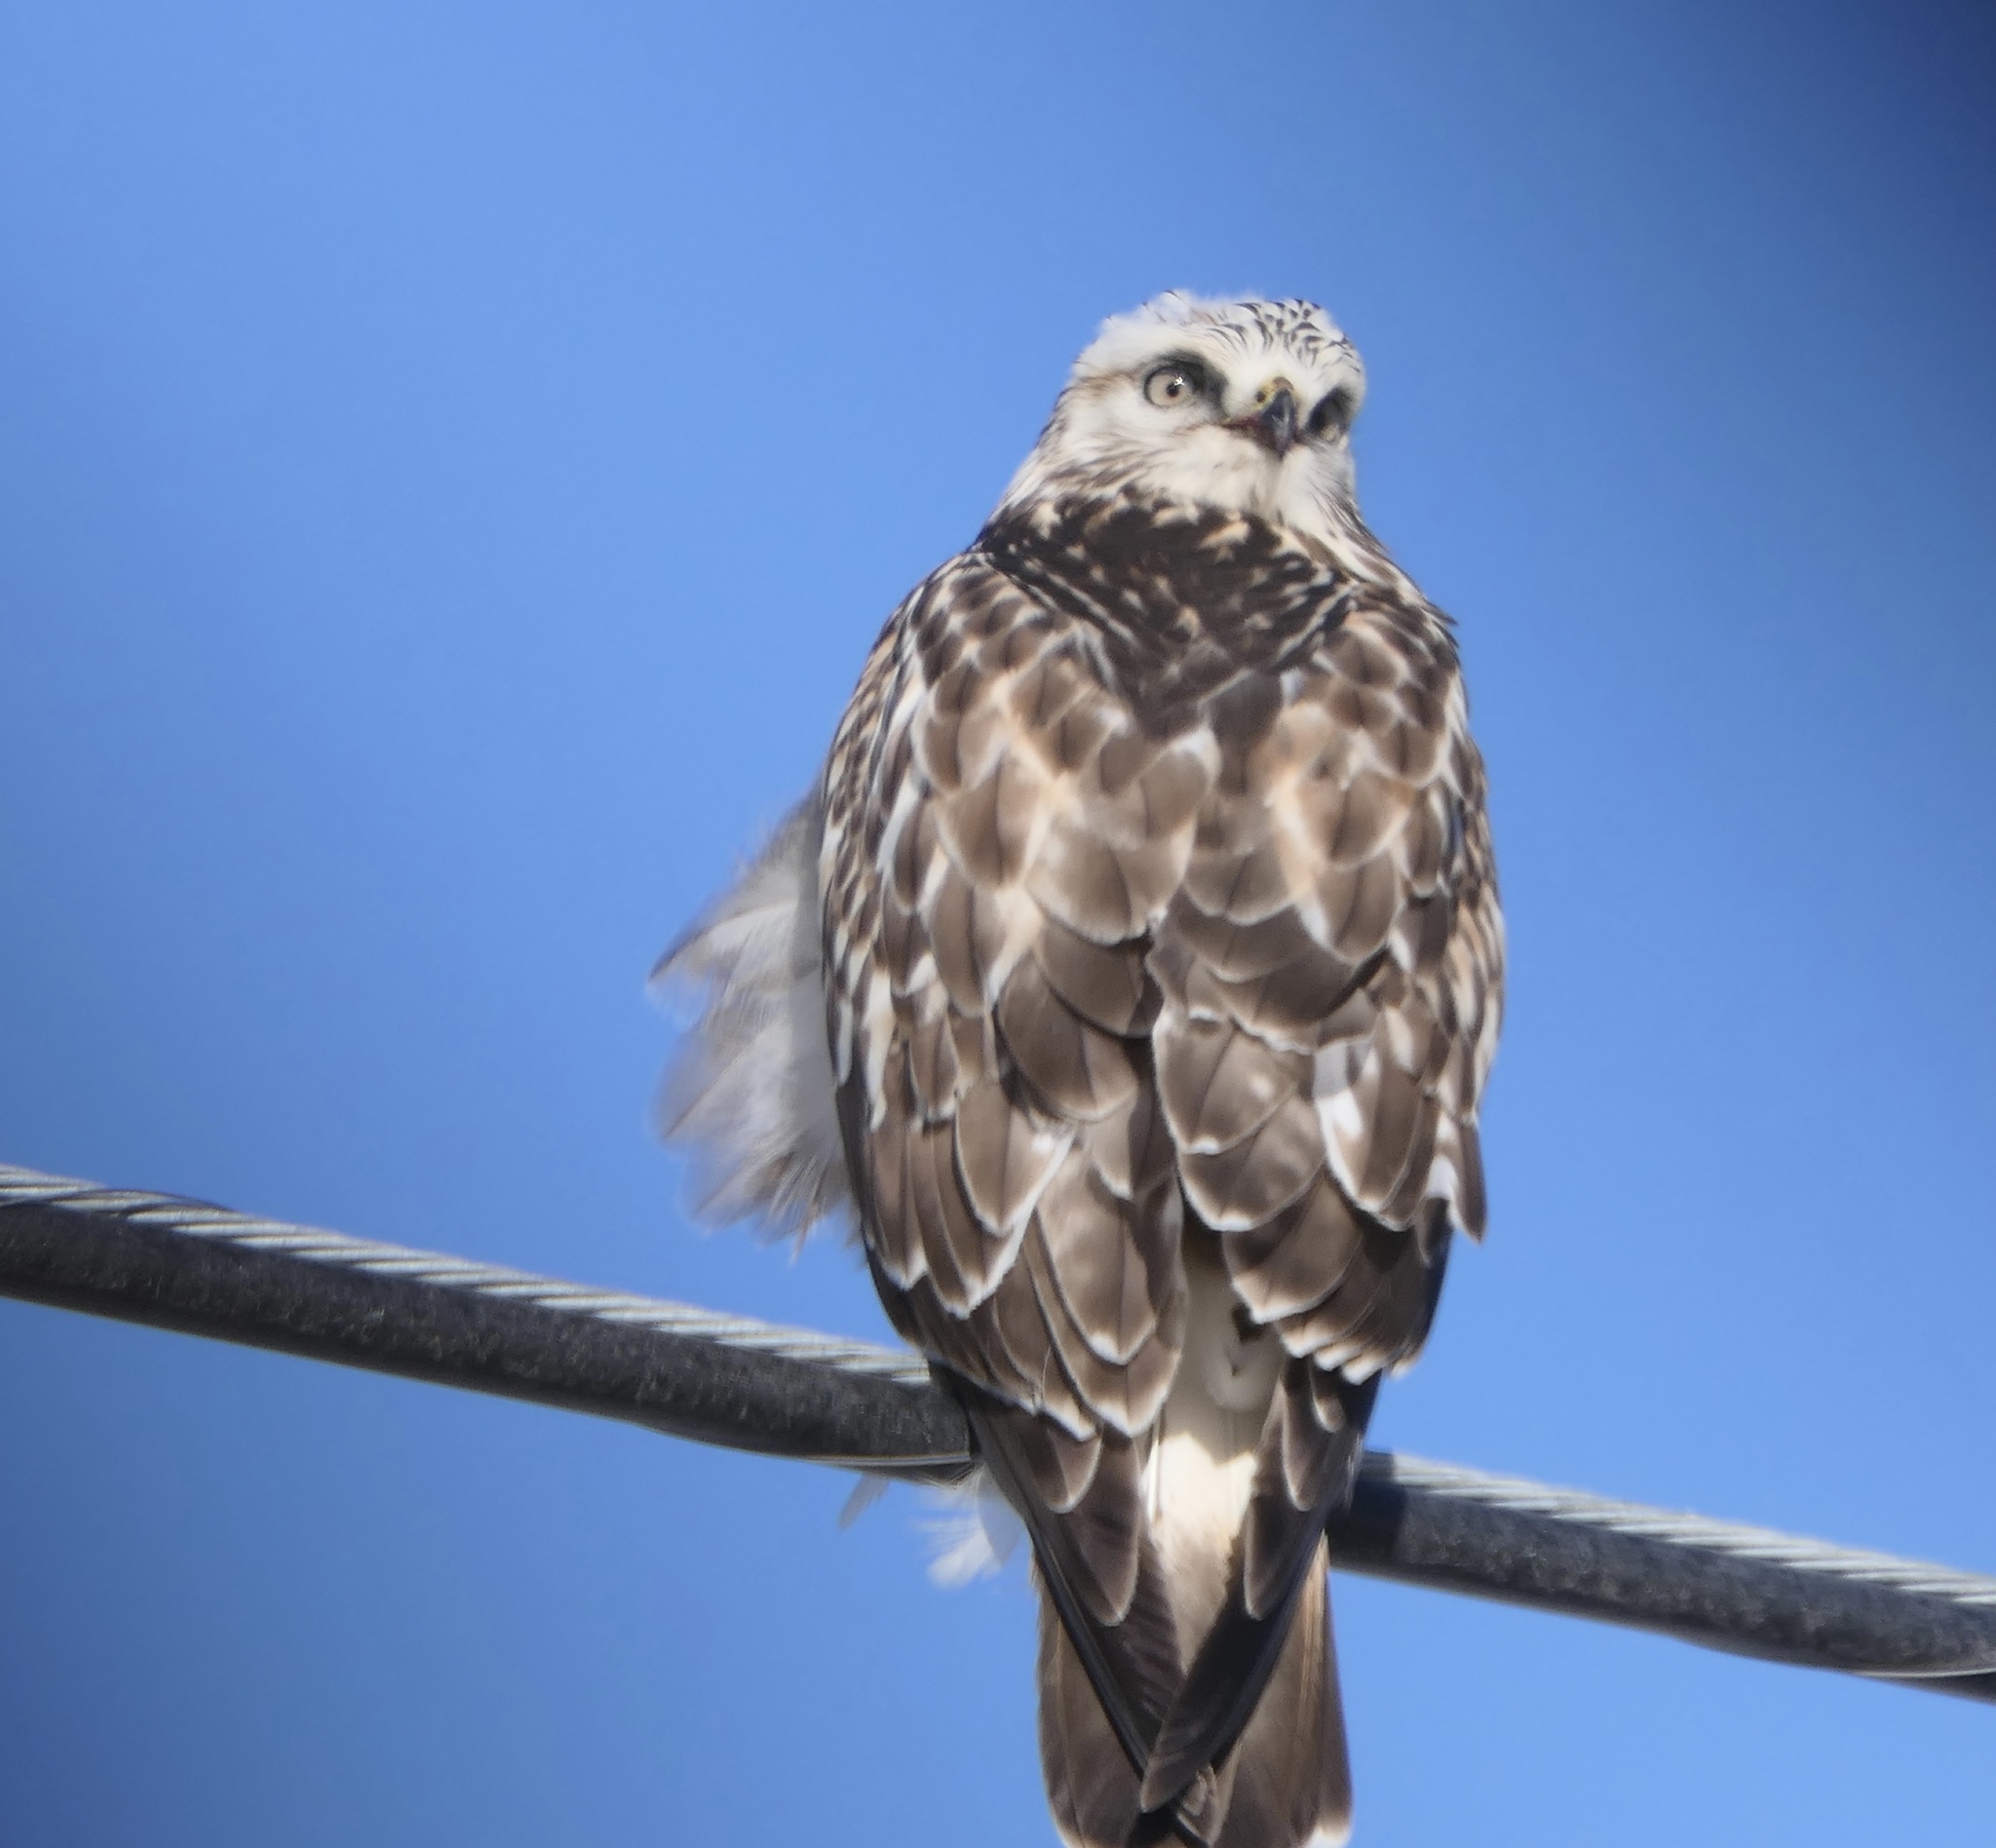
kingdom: Animalia
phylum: Chordata
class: Aves
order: Accipitriformes
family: Accipitridae
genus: Buteo
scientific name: Buteo lagopus
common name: Rough-legged buzzard
